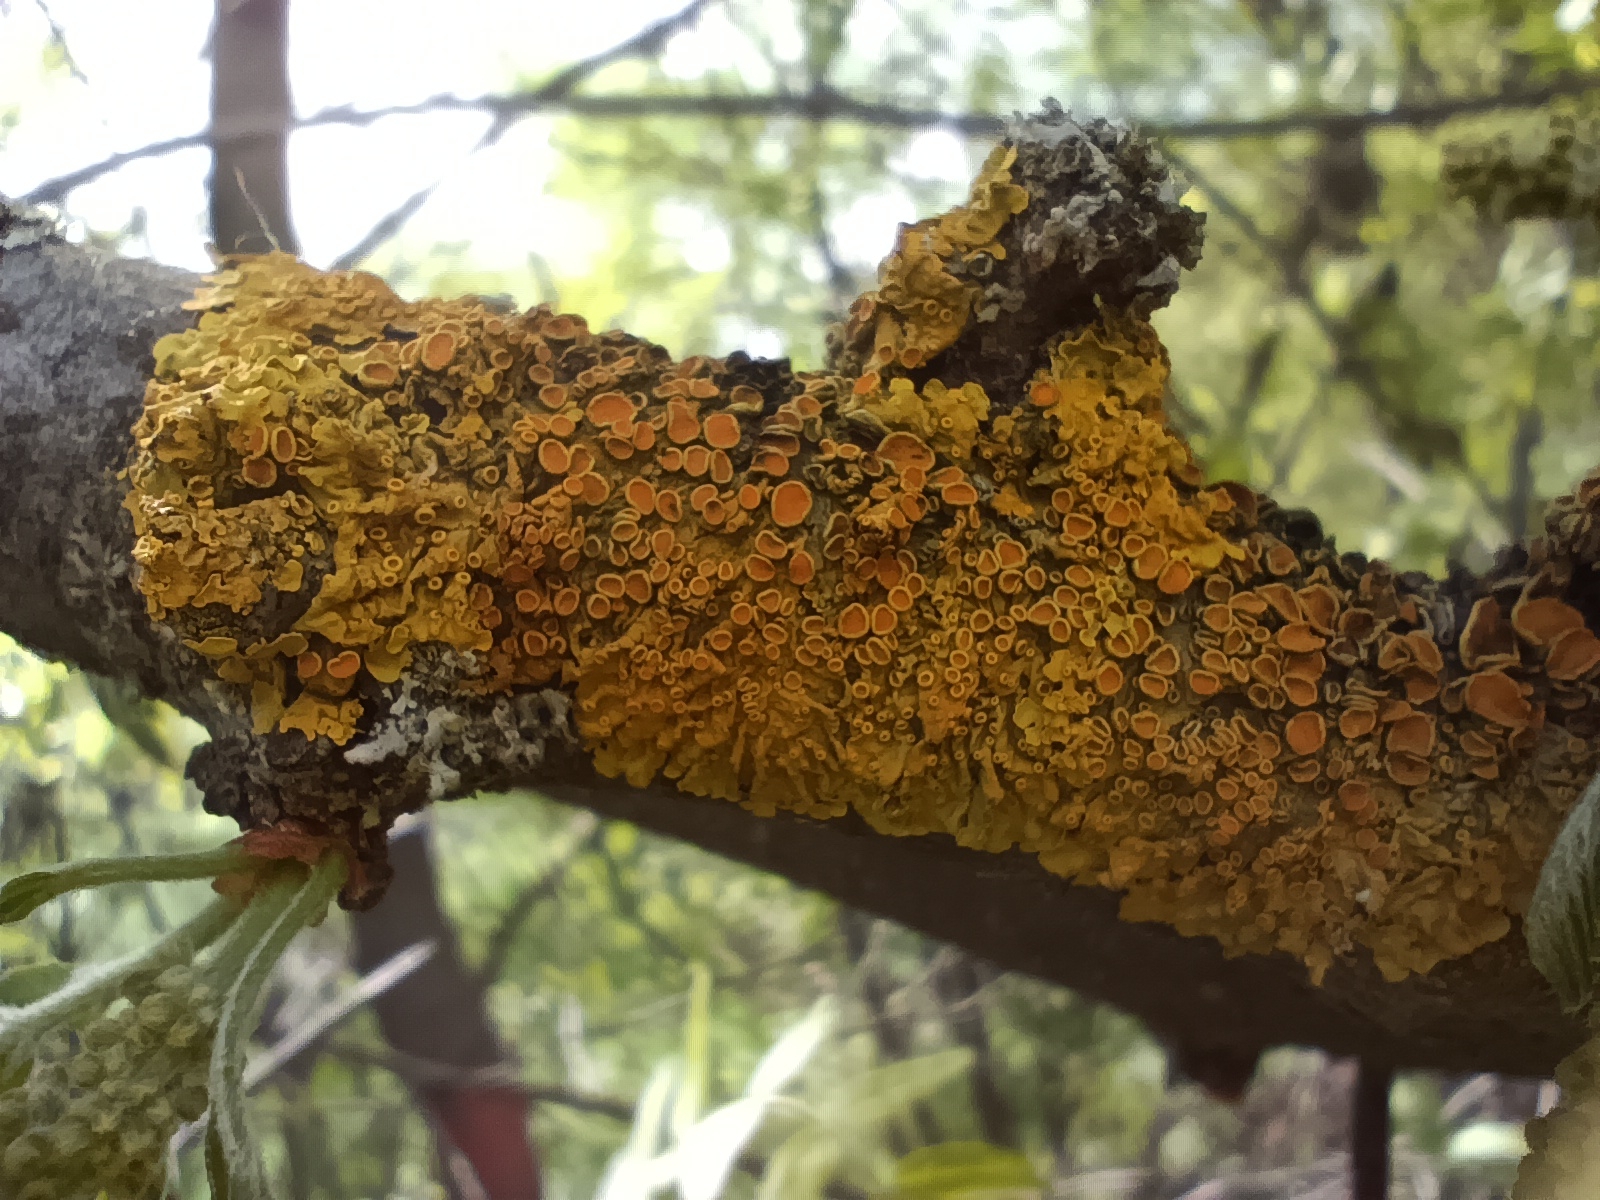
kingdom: Fungi
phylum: Ascomycota
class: Lecanoromycetes
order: Teloschistales
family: Teloschistaceae
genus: Xanthoria
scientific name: Xanthoria parietina
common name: Common orange lichen
